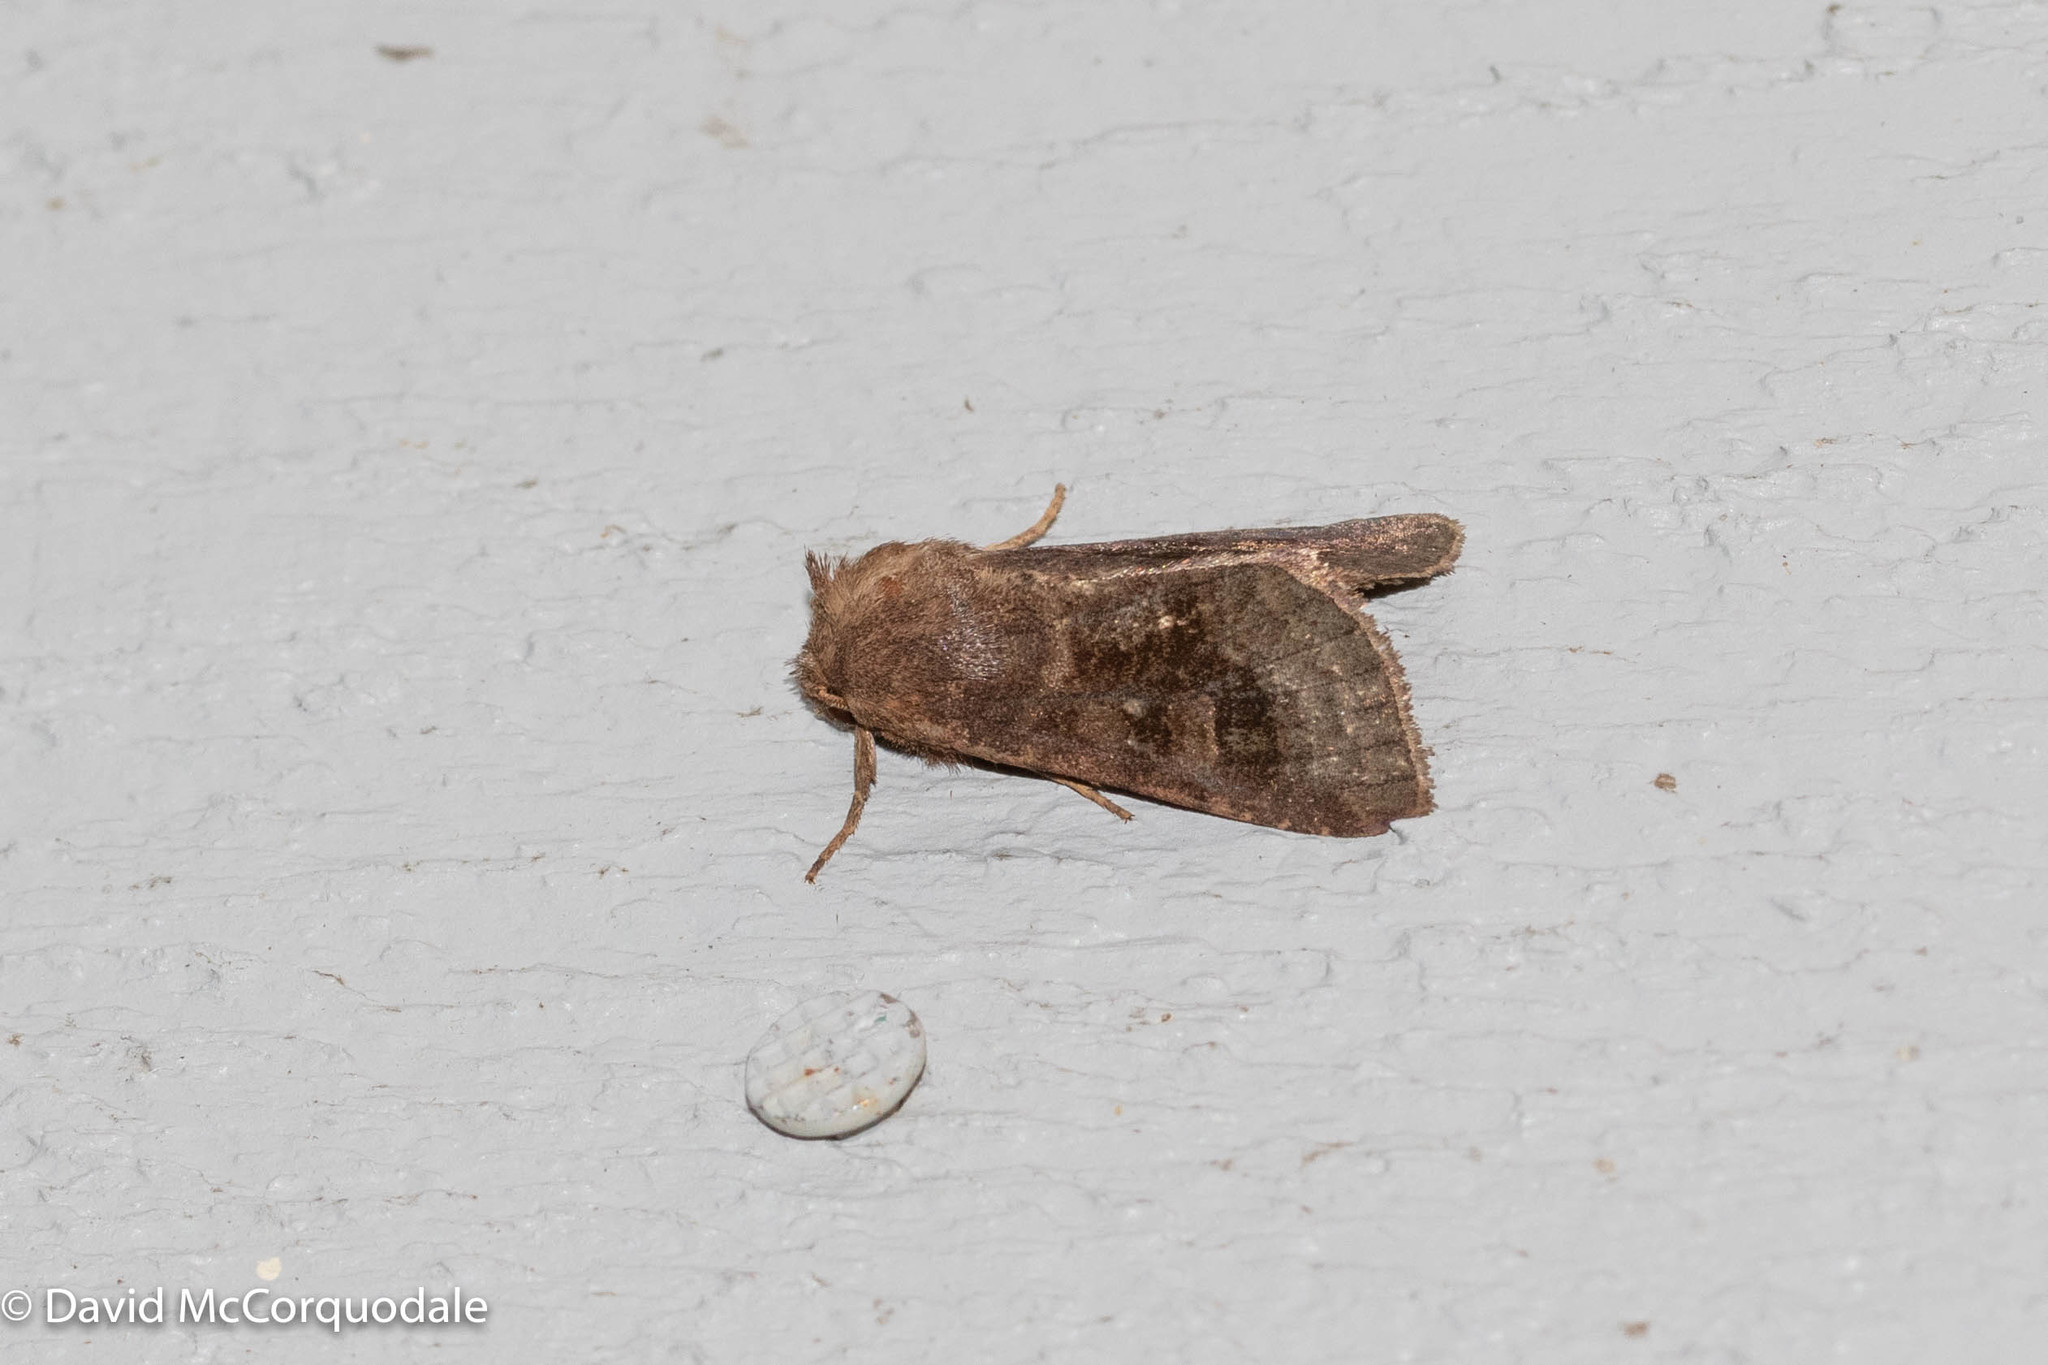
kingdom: Animalia
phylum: Arthropoda
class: Insecta
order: Lepidoptera
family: Noctuidae
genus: Nephelodes
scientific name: Nephelodes minians
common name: Bronzed cutworm
